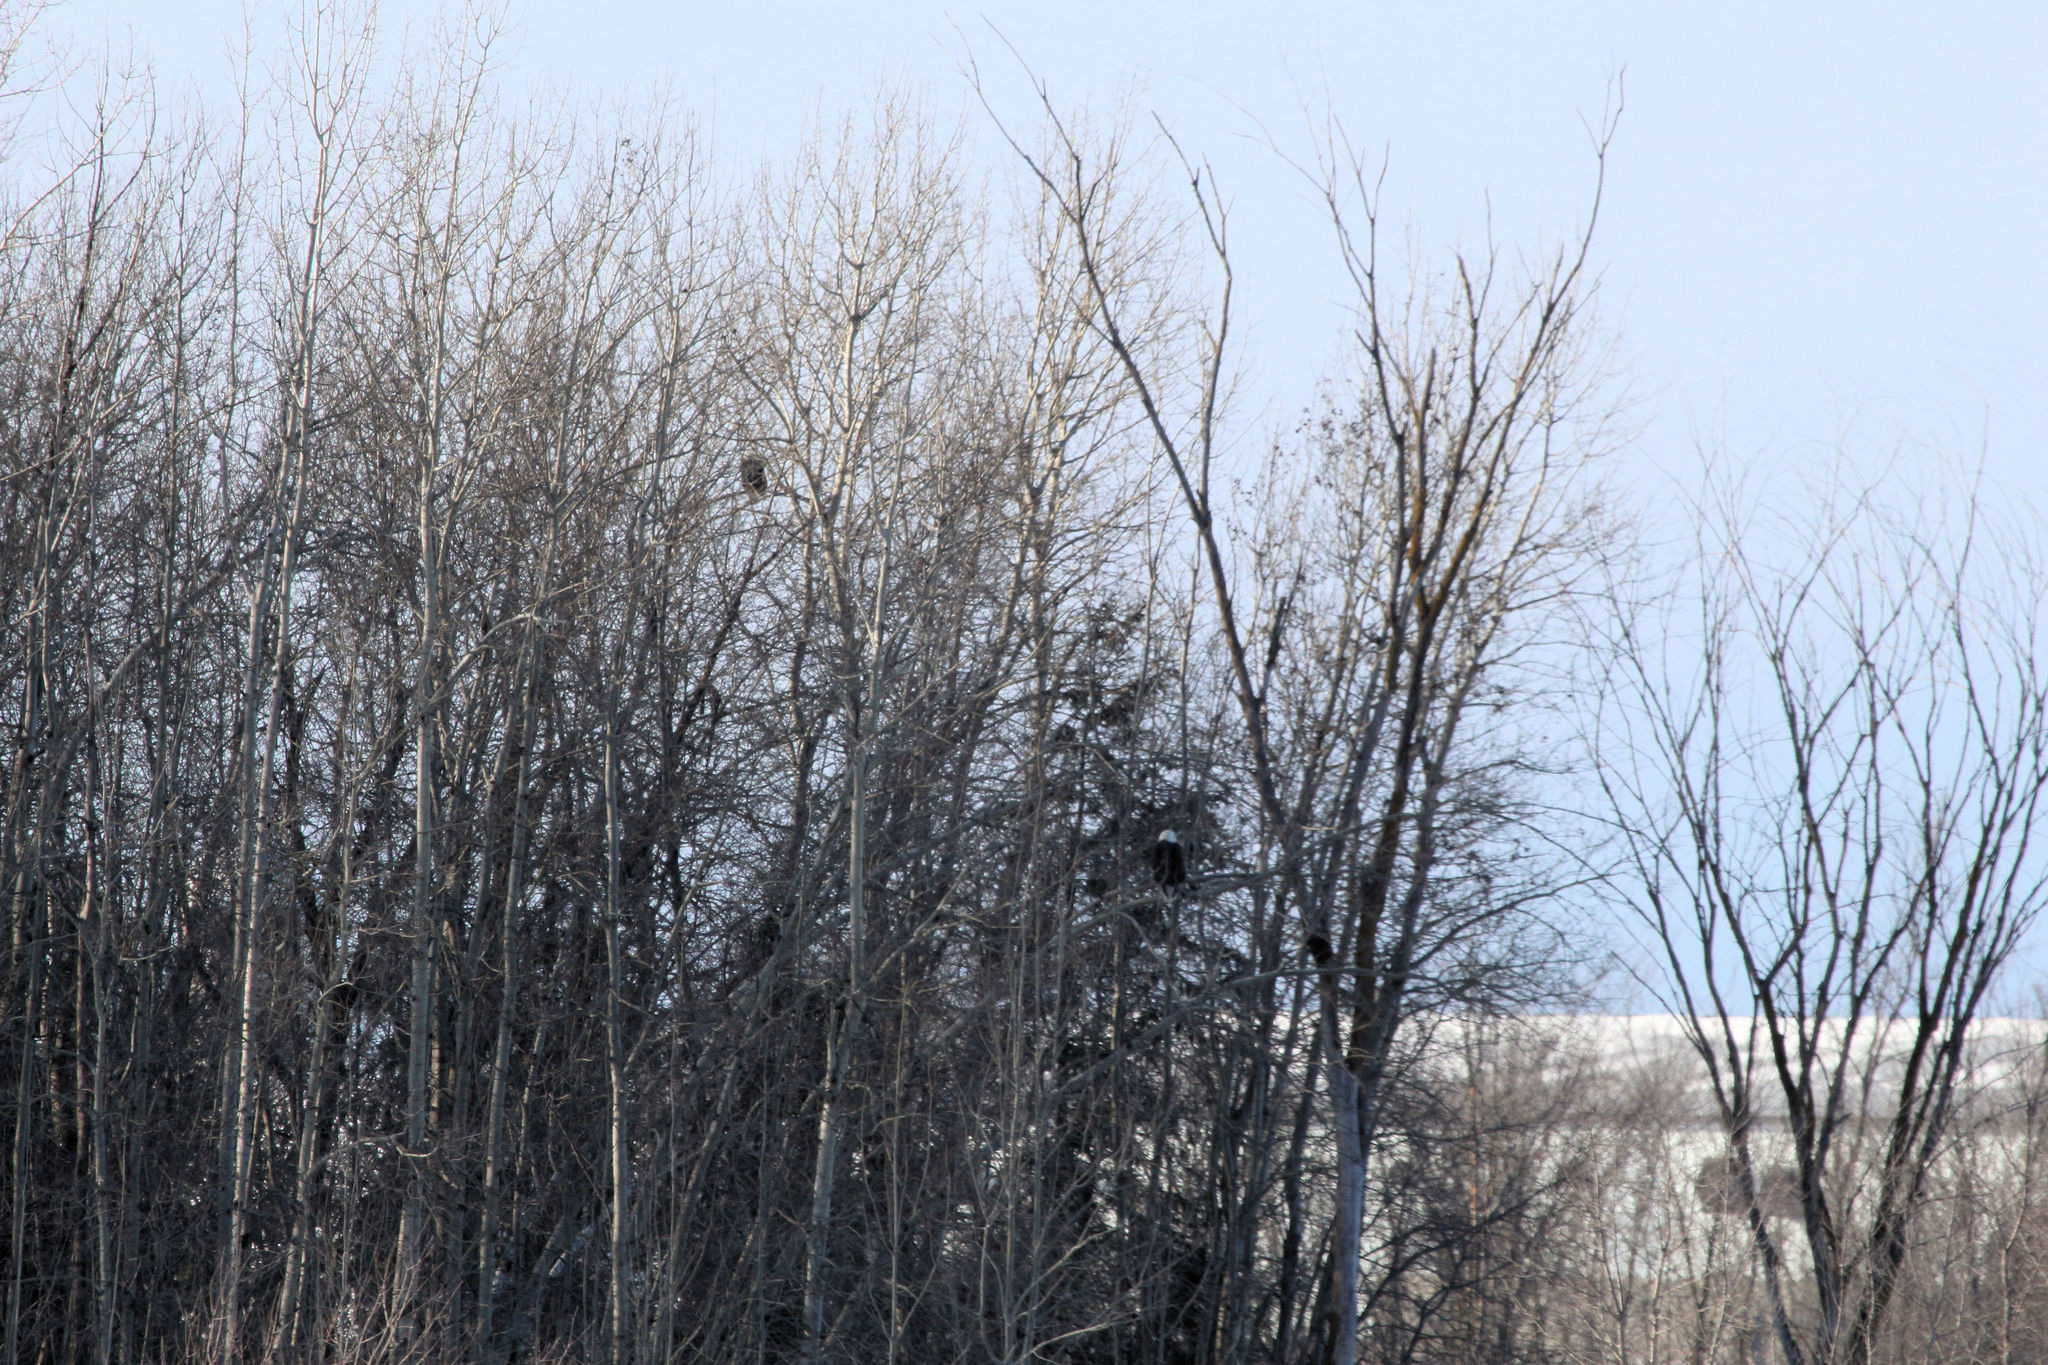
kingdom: Animalia
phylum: Chordata
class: Aves
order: Accipitriformes
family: Accipitridae
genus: Haliaeetus
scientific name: Haliaeetus leucocephalus
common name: Bald eagle
